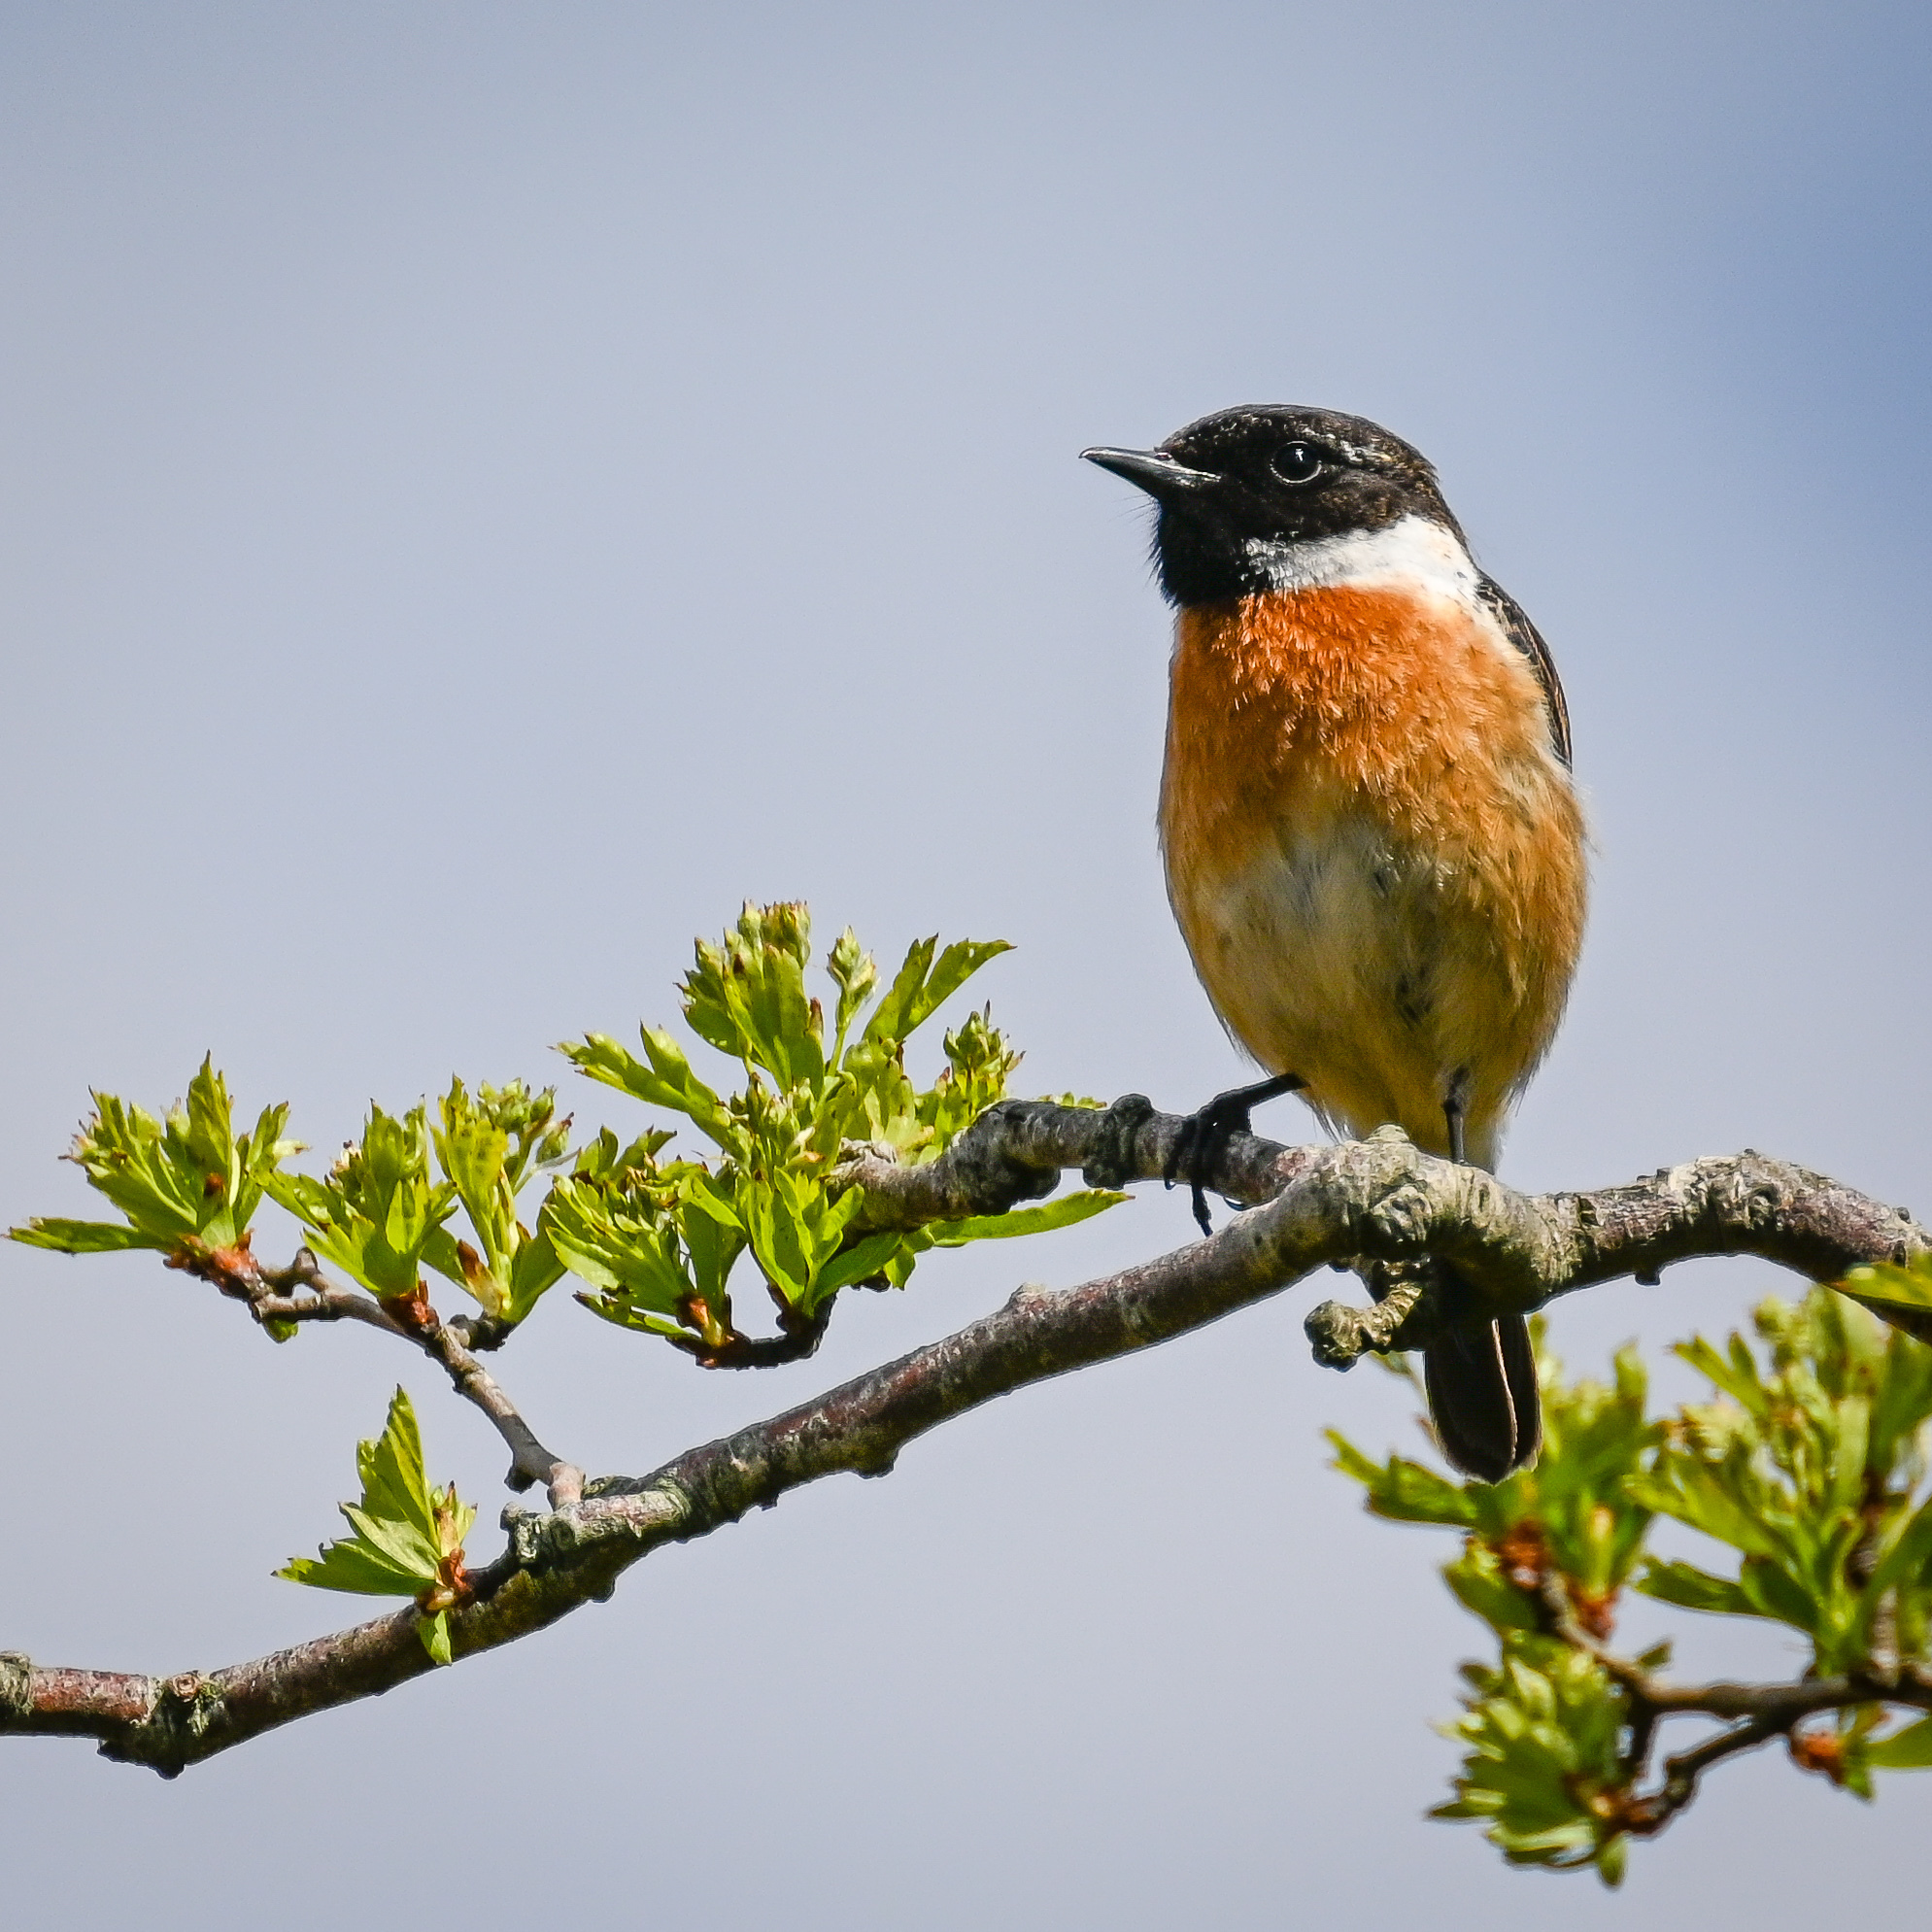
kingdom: Animalia
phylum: Chordata
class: Aves
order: Passeriformes
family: Muscicapidae
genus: Saxicola
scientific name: Saxicola rubicola
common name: European stonechat
